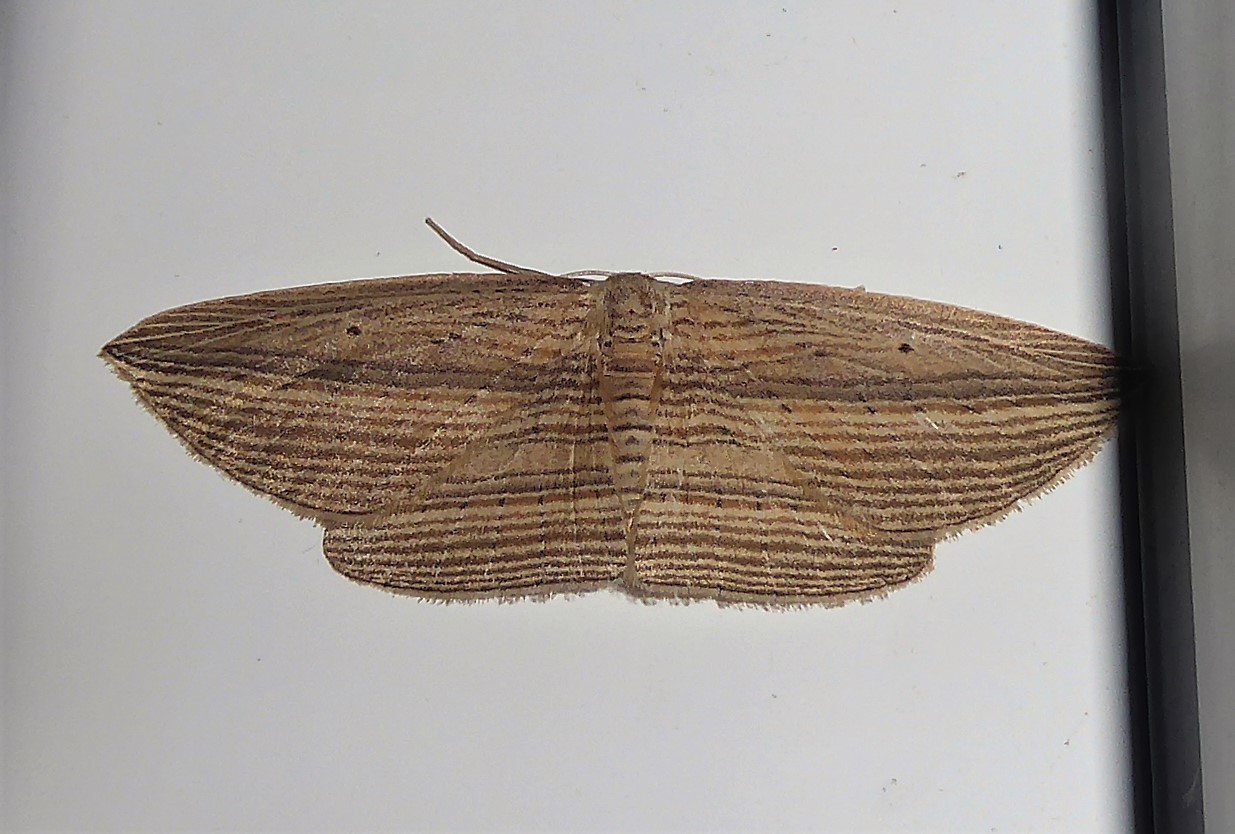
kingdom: Animalia
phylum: Arthropoda
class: Insecta
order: Lepidoptera
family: Geometridae
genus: Epiphryne
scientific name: Epiphryne verriculata
